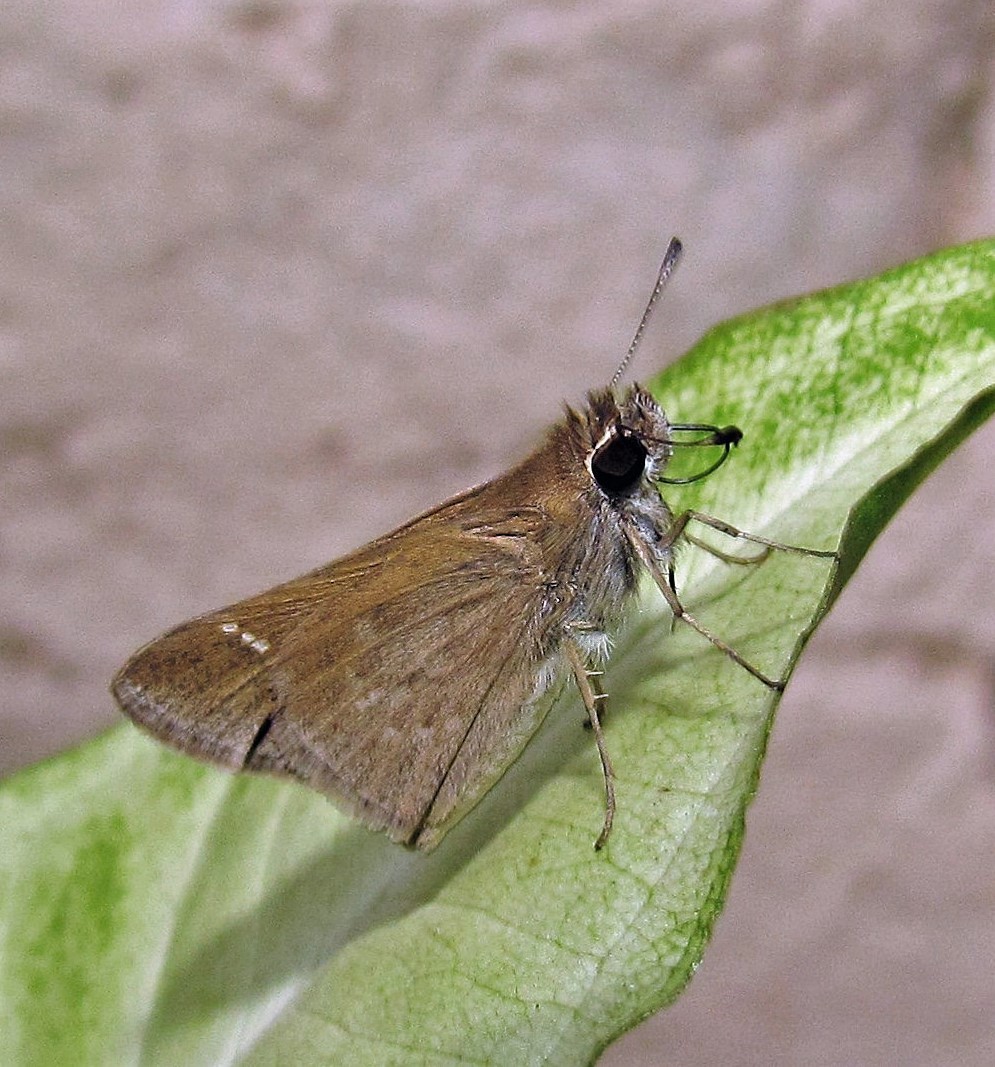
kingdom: Animalia
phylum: Arthropoda
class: Insecta
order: Lepidoptera
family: Hesperiidae
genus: Lerodea
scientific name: Lerodea eufala
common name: Eufala skipper
